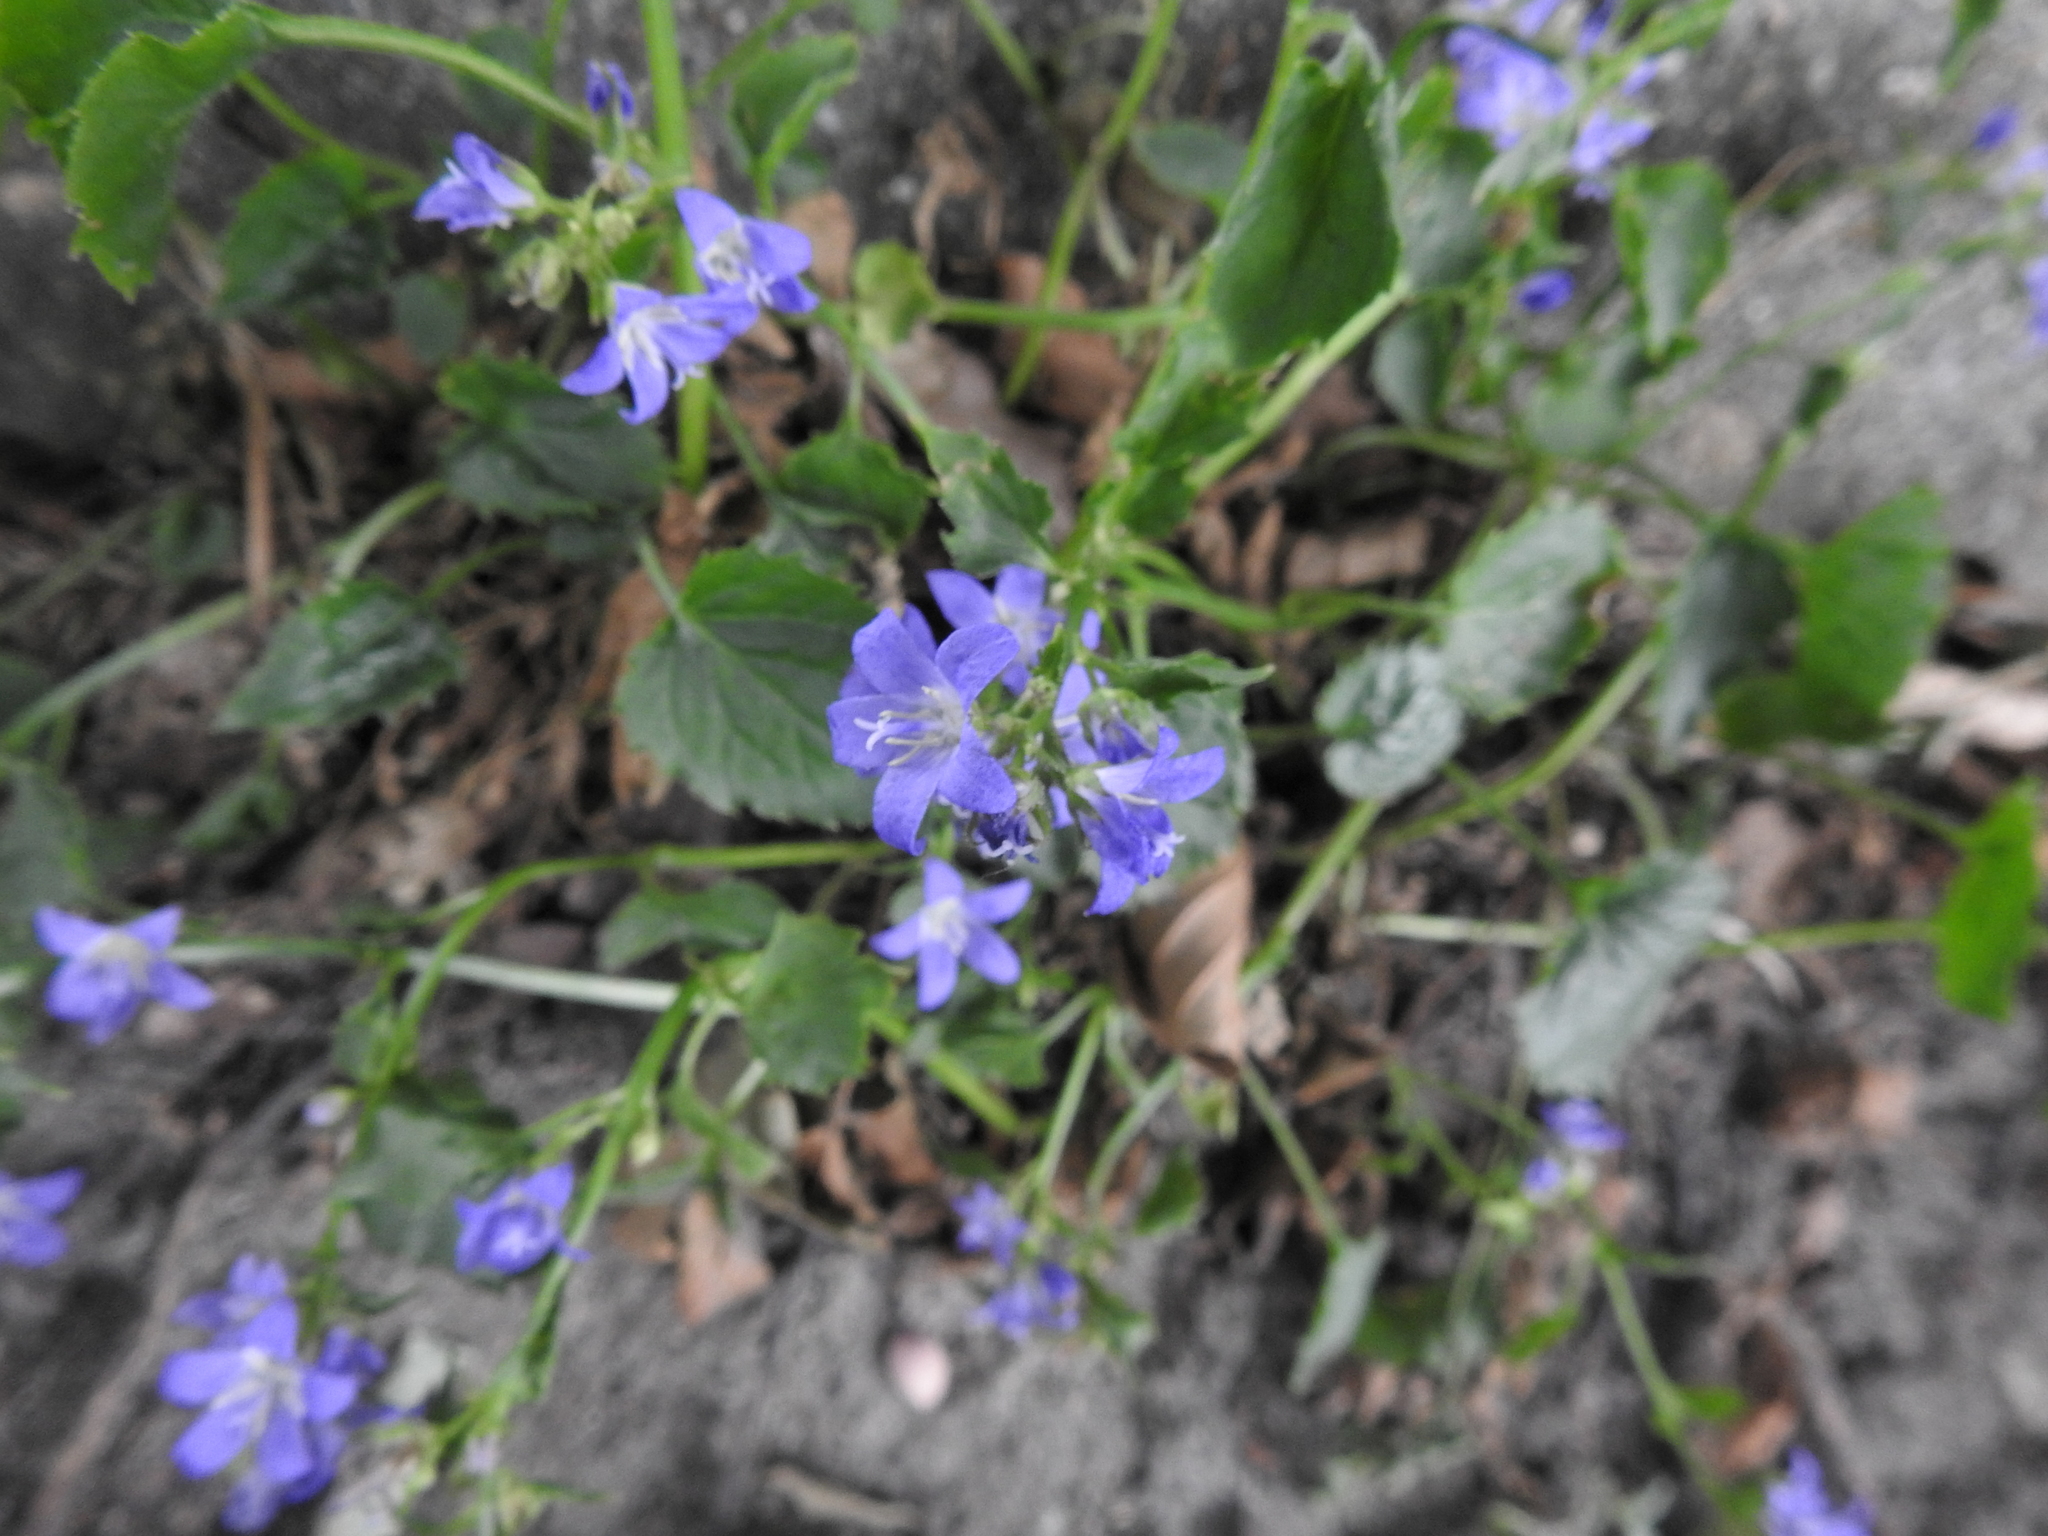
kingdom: Plantae
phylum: Tracheophyta
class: Magnoliopsida
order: Asterales
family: Campanulaceae
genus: Campanula
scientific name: Campanula poscharskyana
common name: Trailing bellflower
